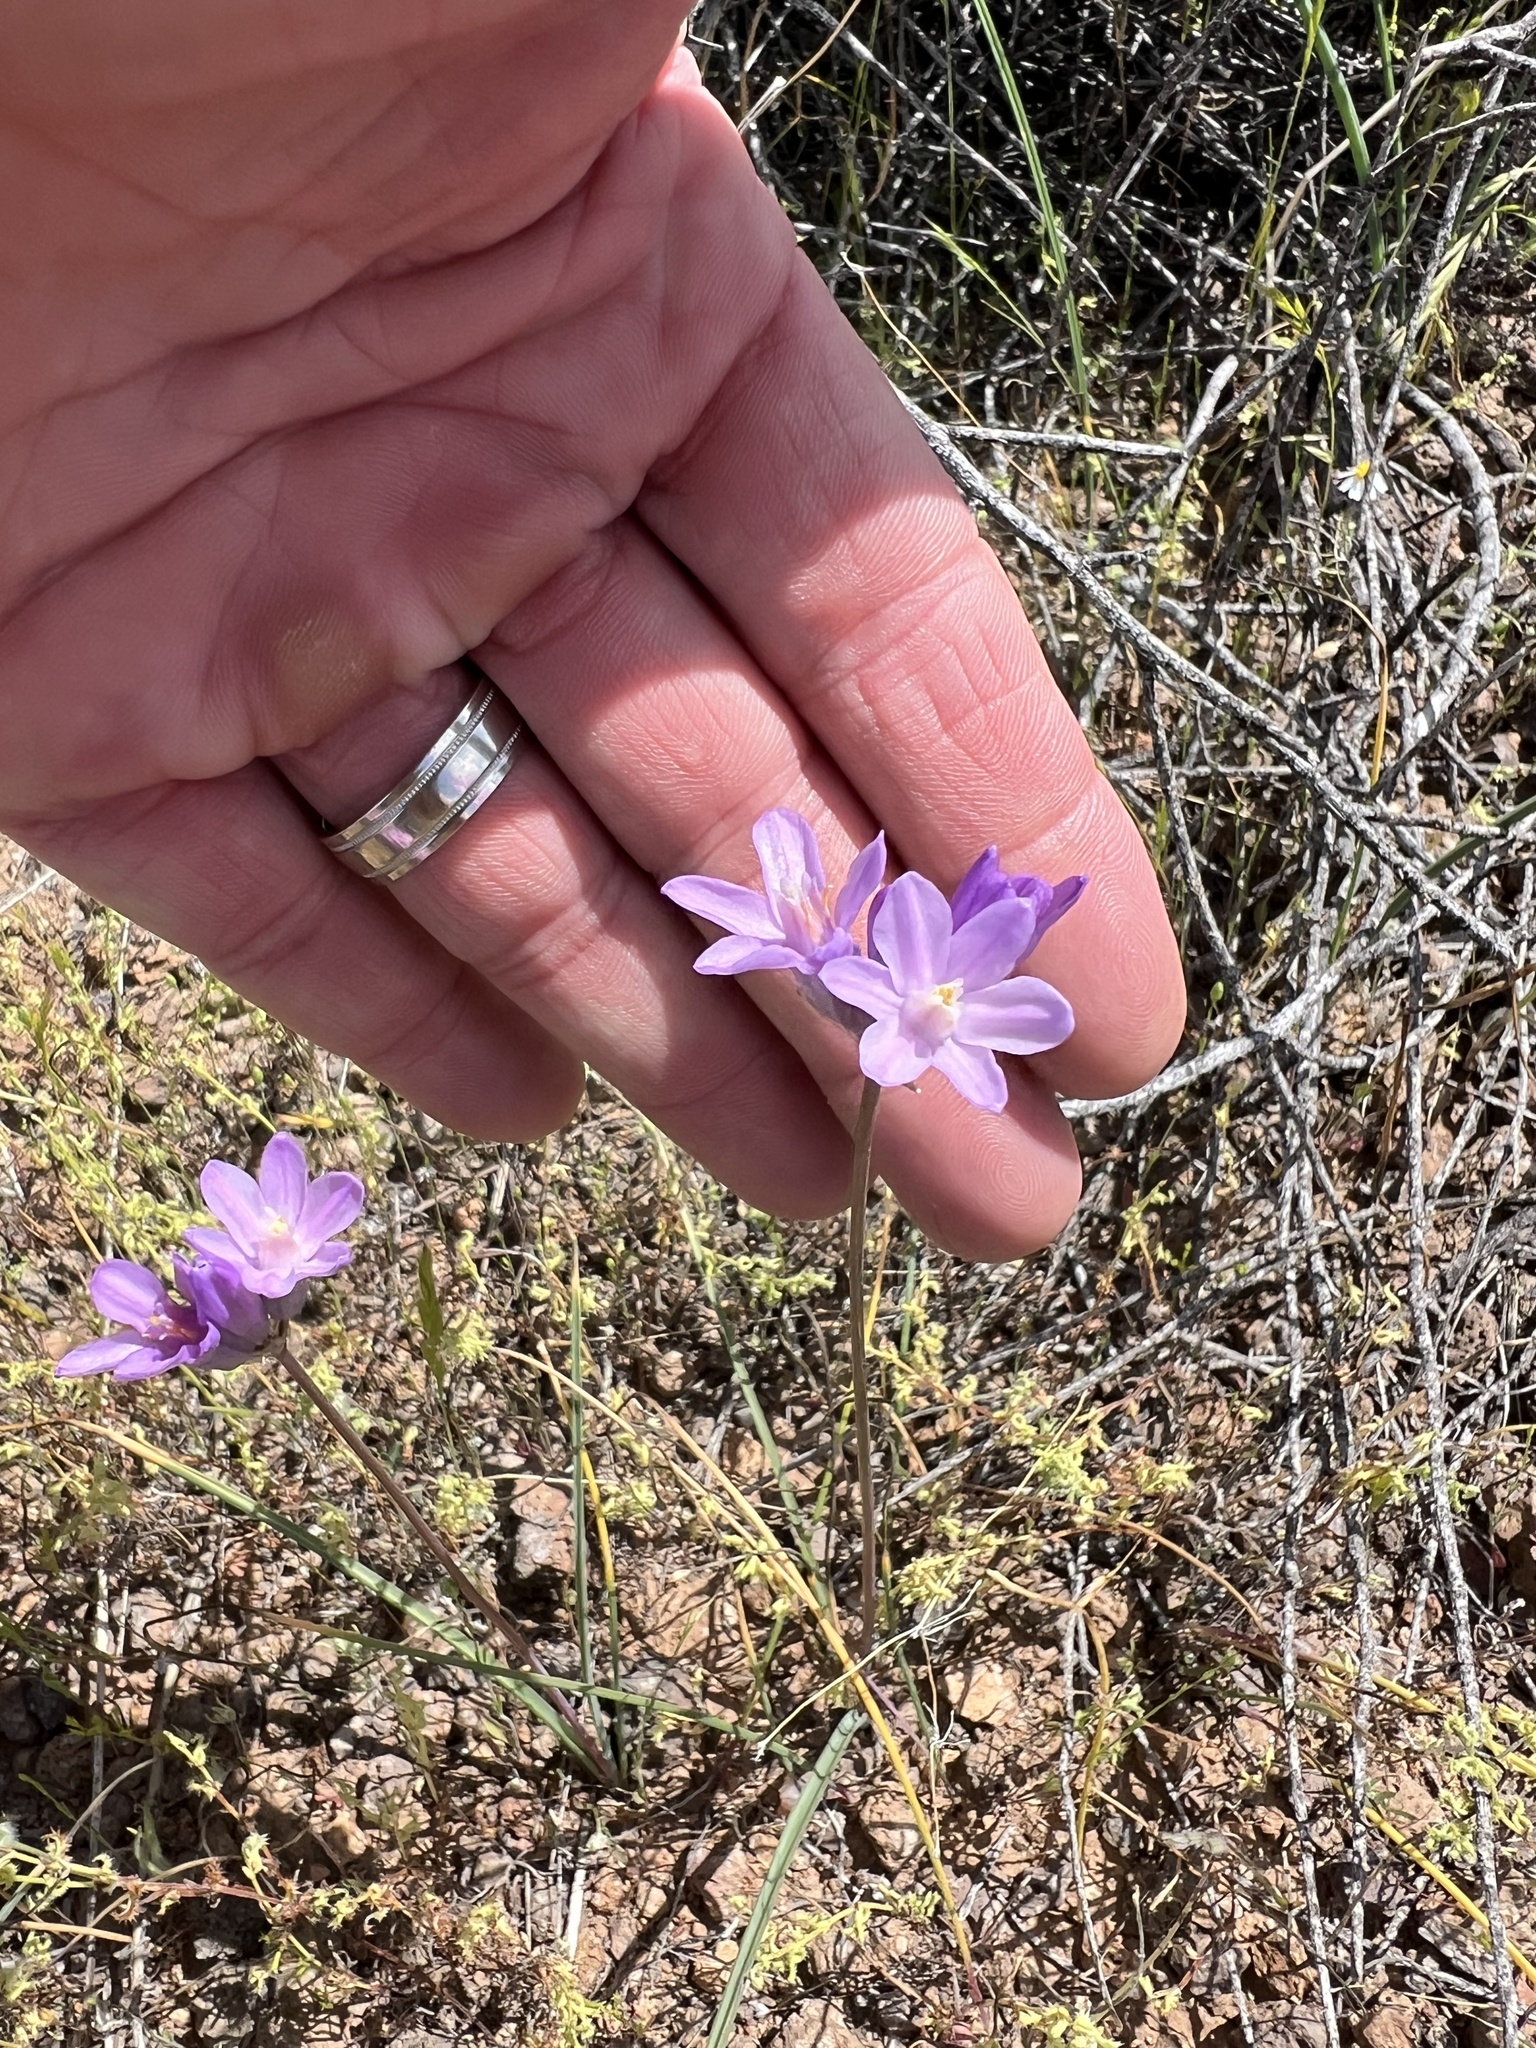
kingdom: Plantae
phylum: Tracheophyta
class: Liliopsida
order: Asparagales
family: Asparagaceae
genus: Dipterostemon
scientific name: Dipterostemon capitatus
